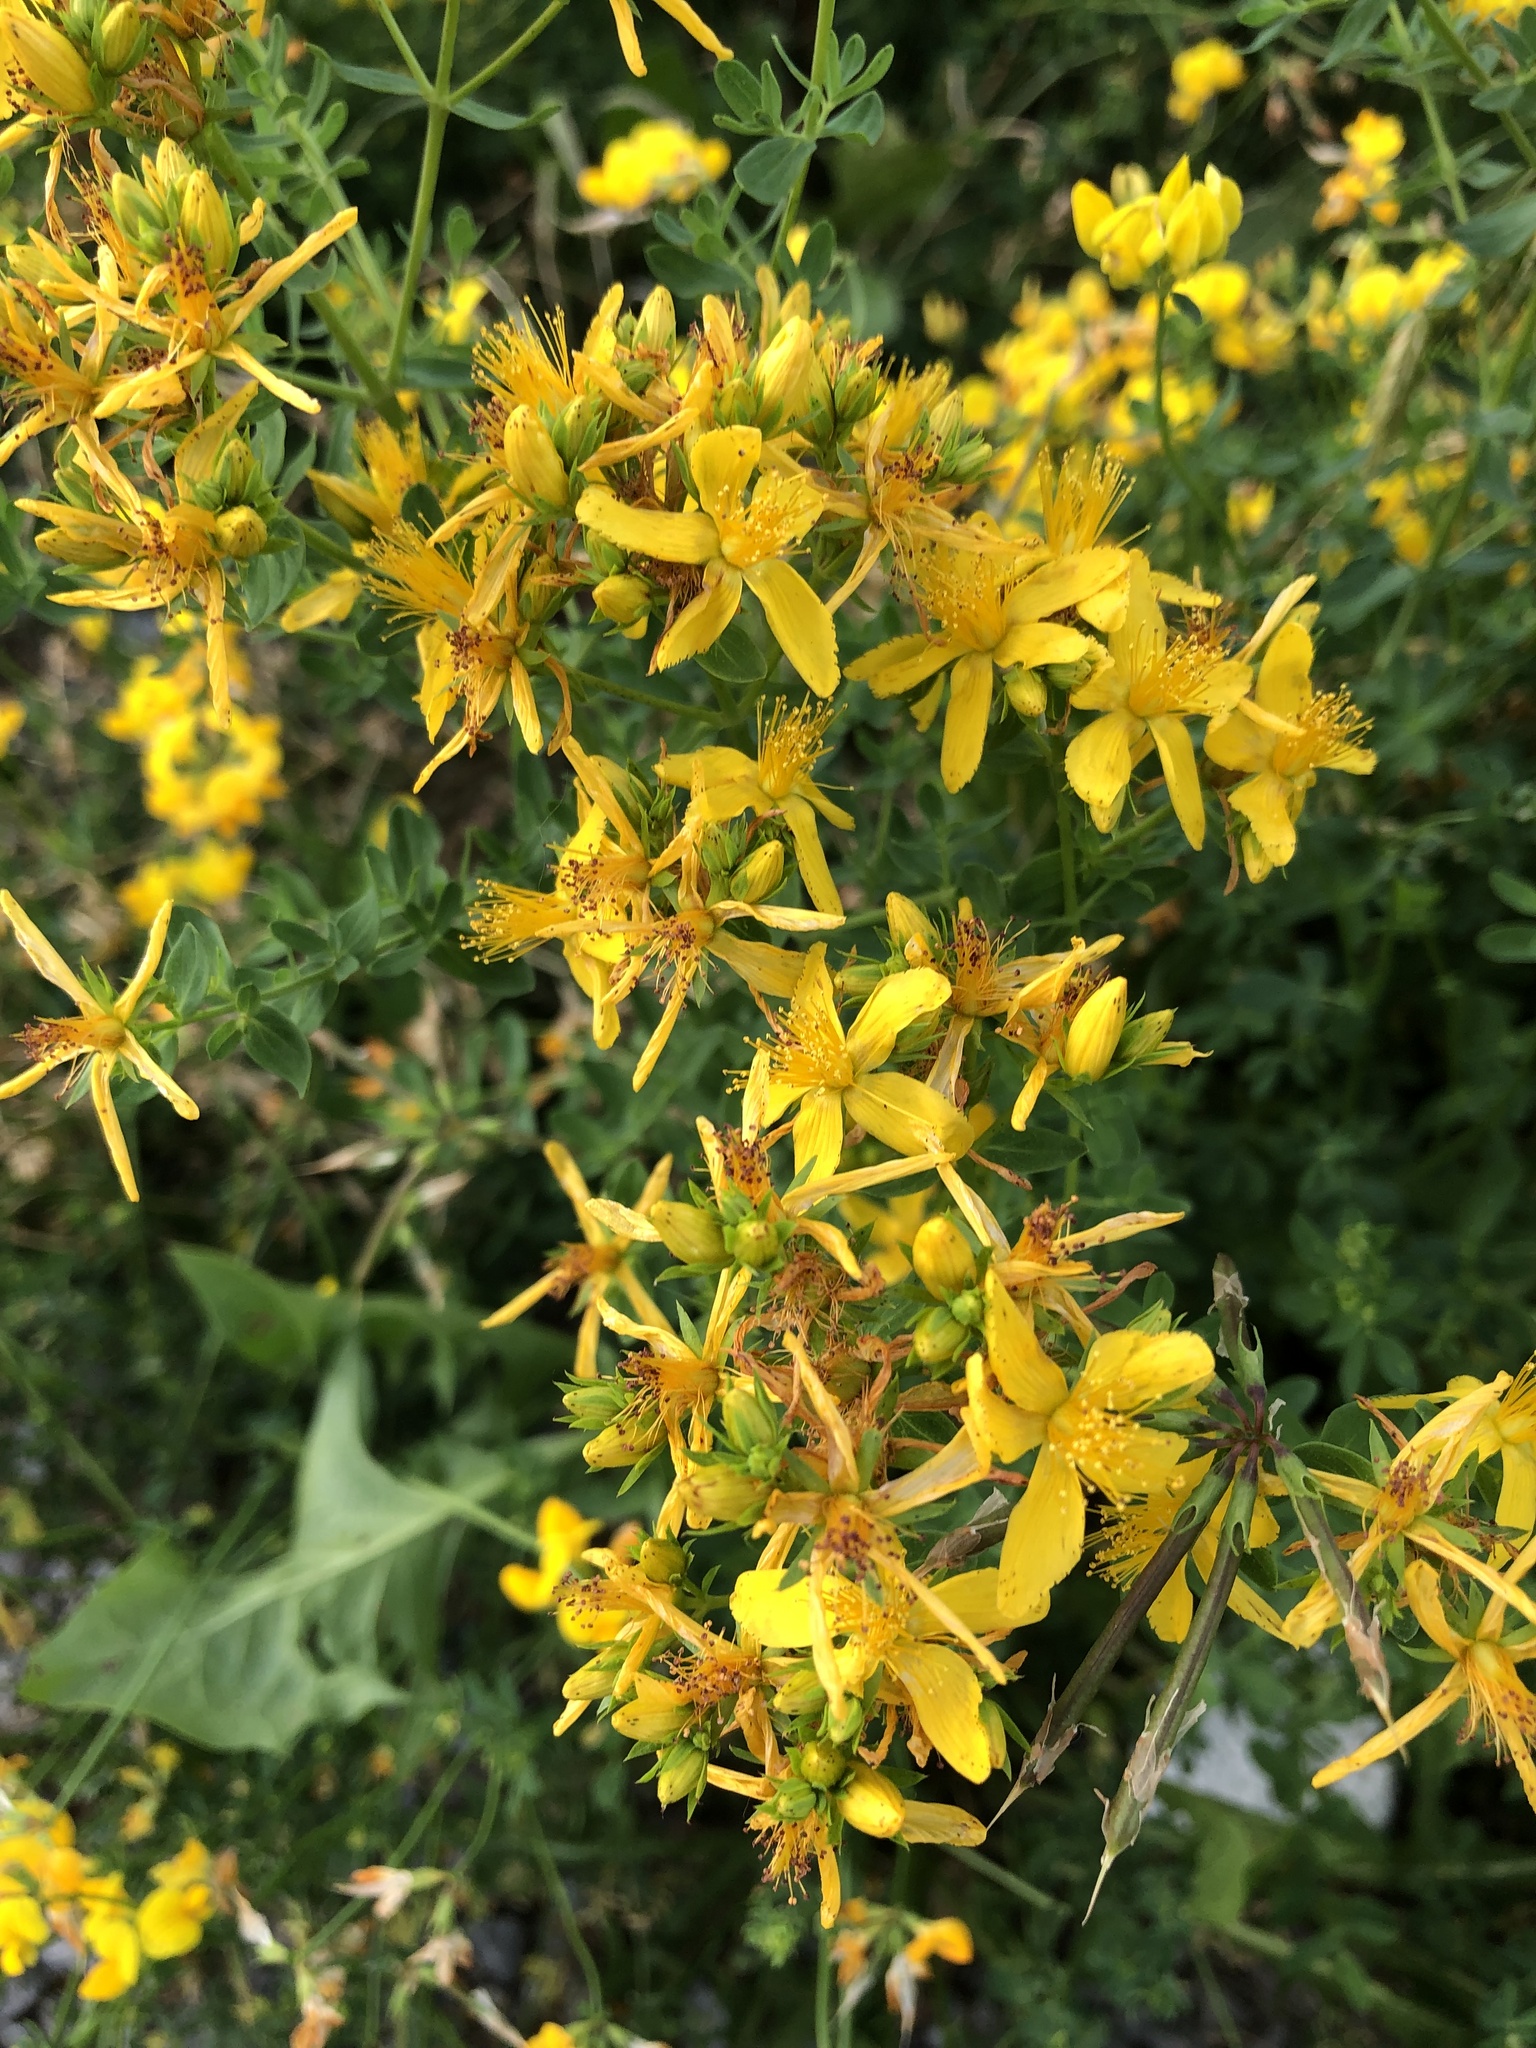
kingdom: Plantae
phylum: Tracheophyta
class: Magnoliopsida
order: Malpighiales
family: Hypericaceae
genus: Hypericum
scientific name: Hypericum perforatum
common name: Common st. johnswort
